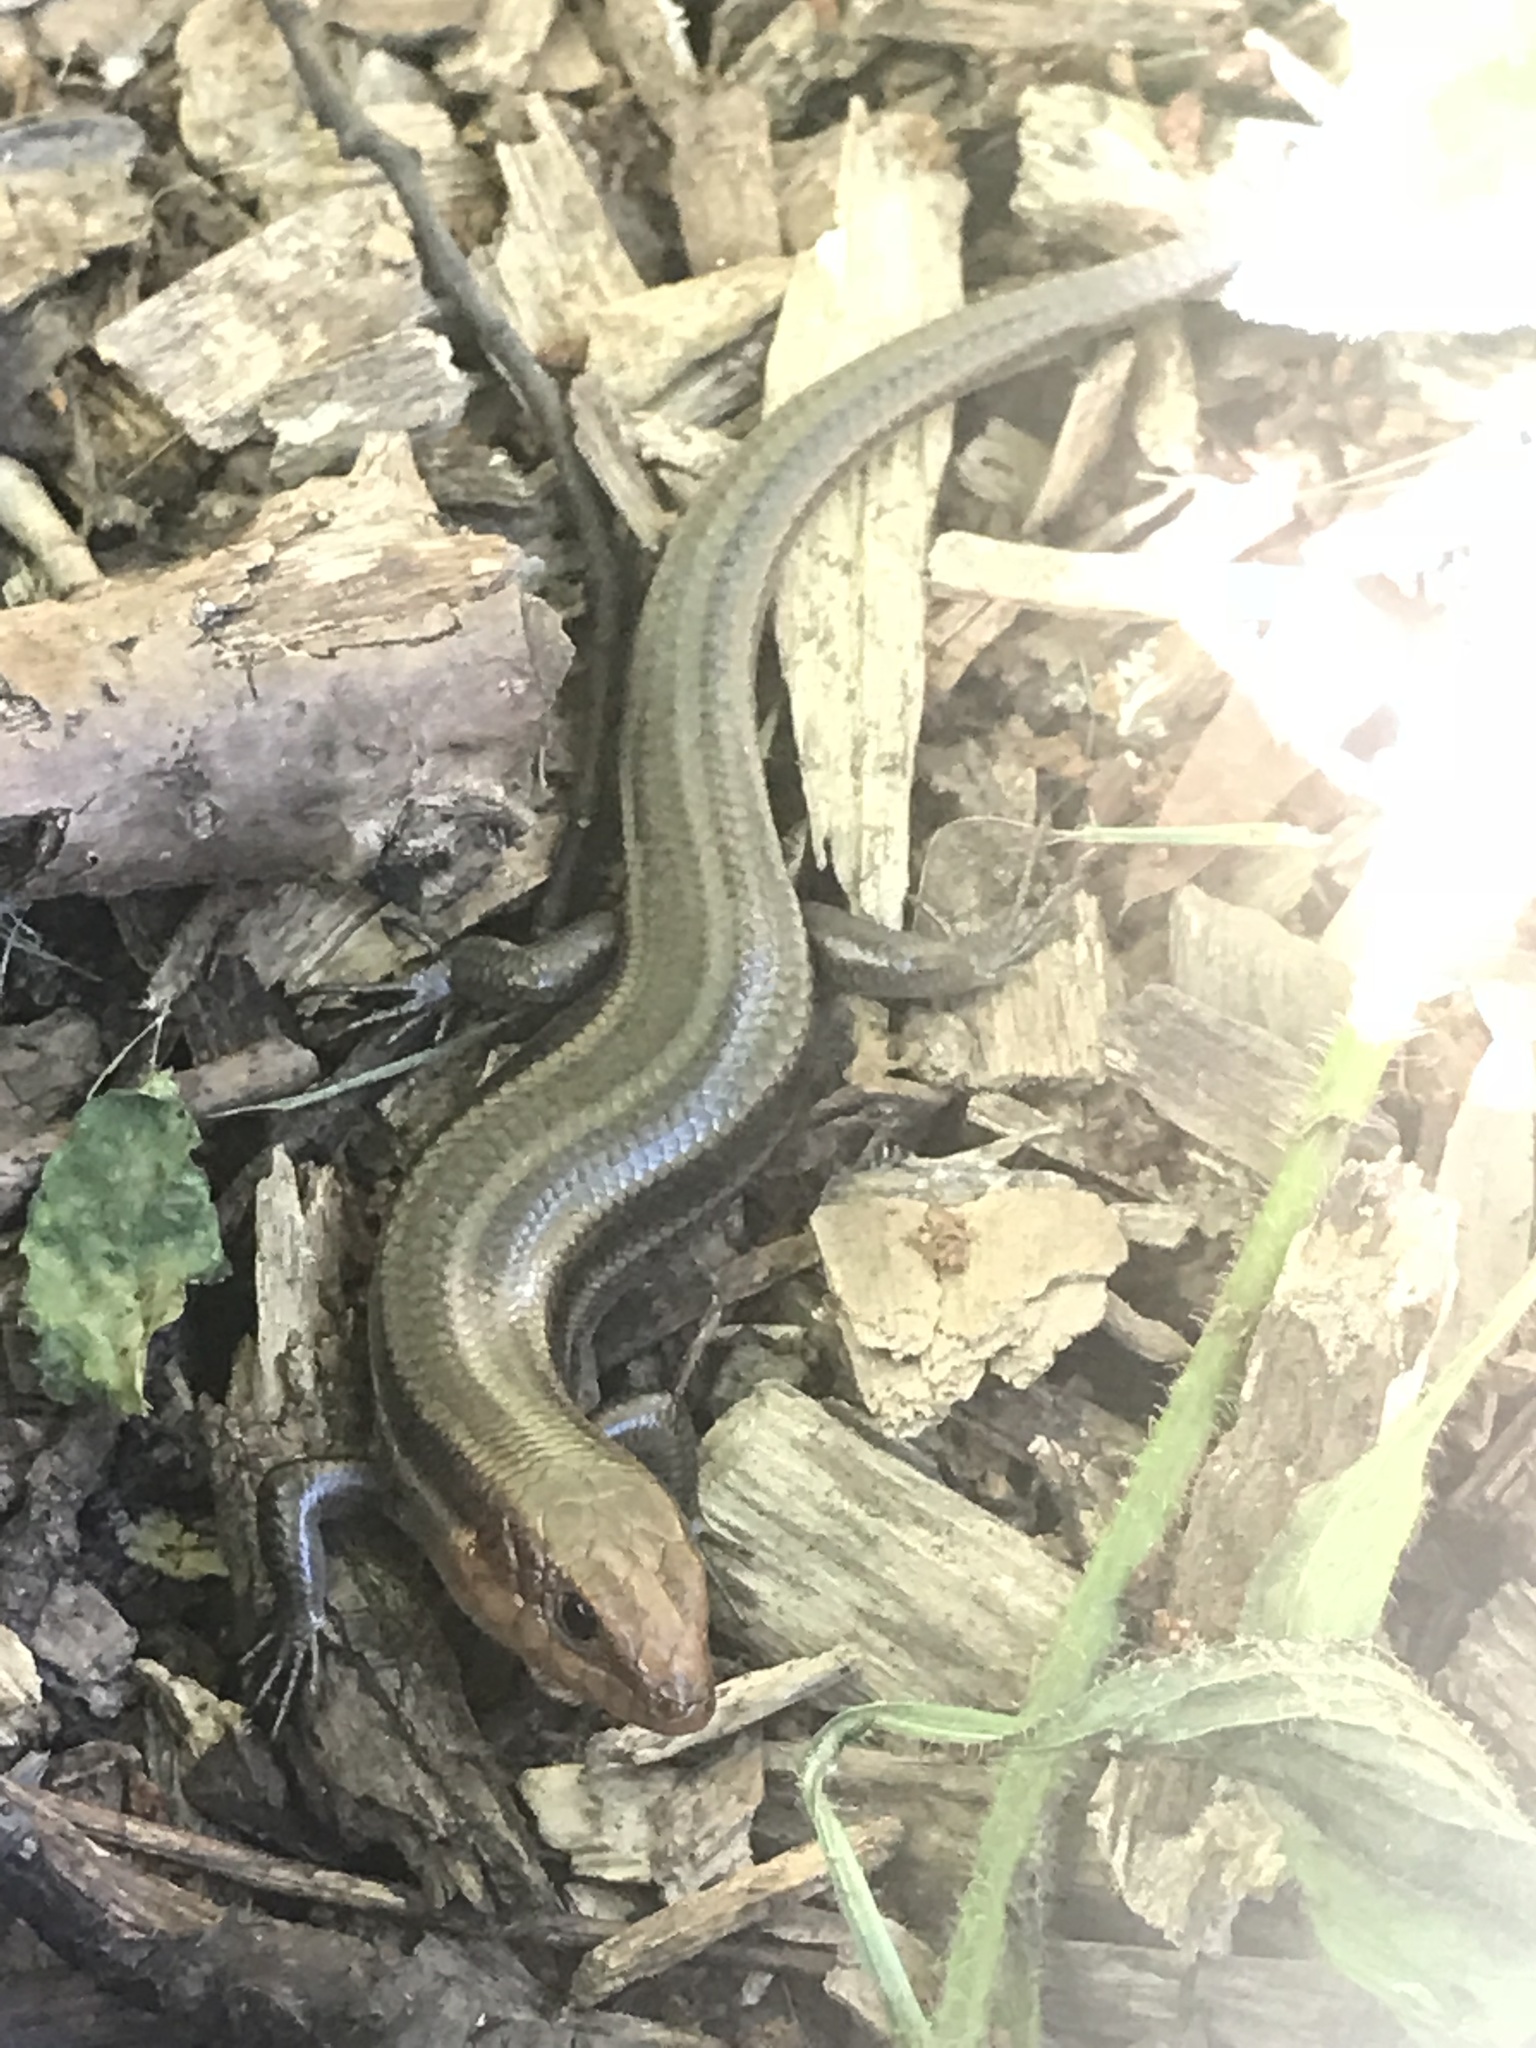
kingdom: Animalia
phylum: Chordata
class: Squamata
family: Scincidae
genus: Plestiodon
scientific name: Plestiodon fasciatus
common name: Five-lined skink
